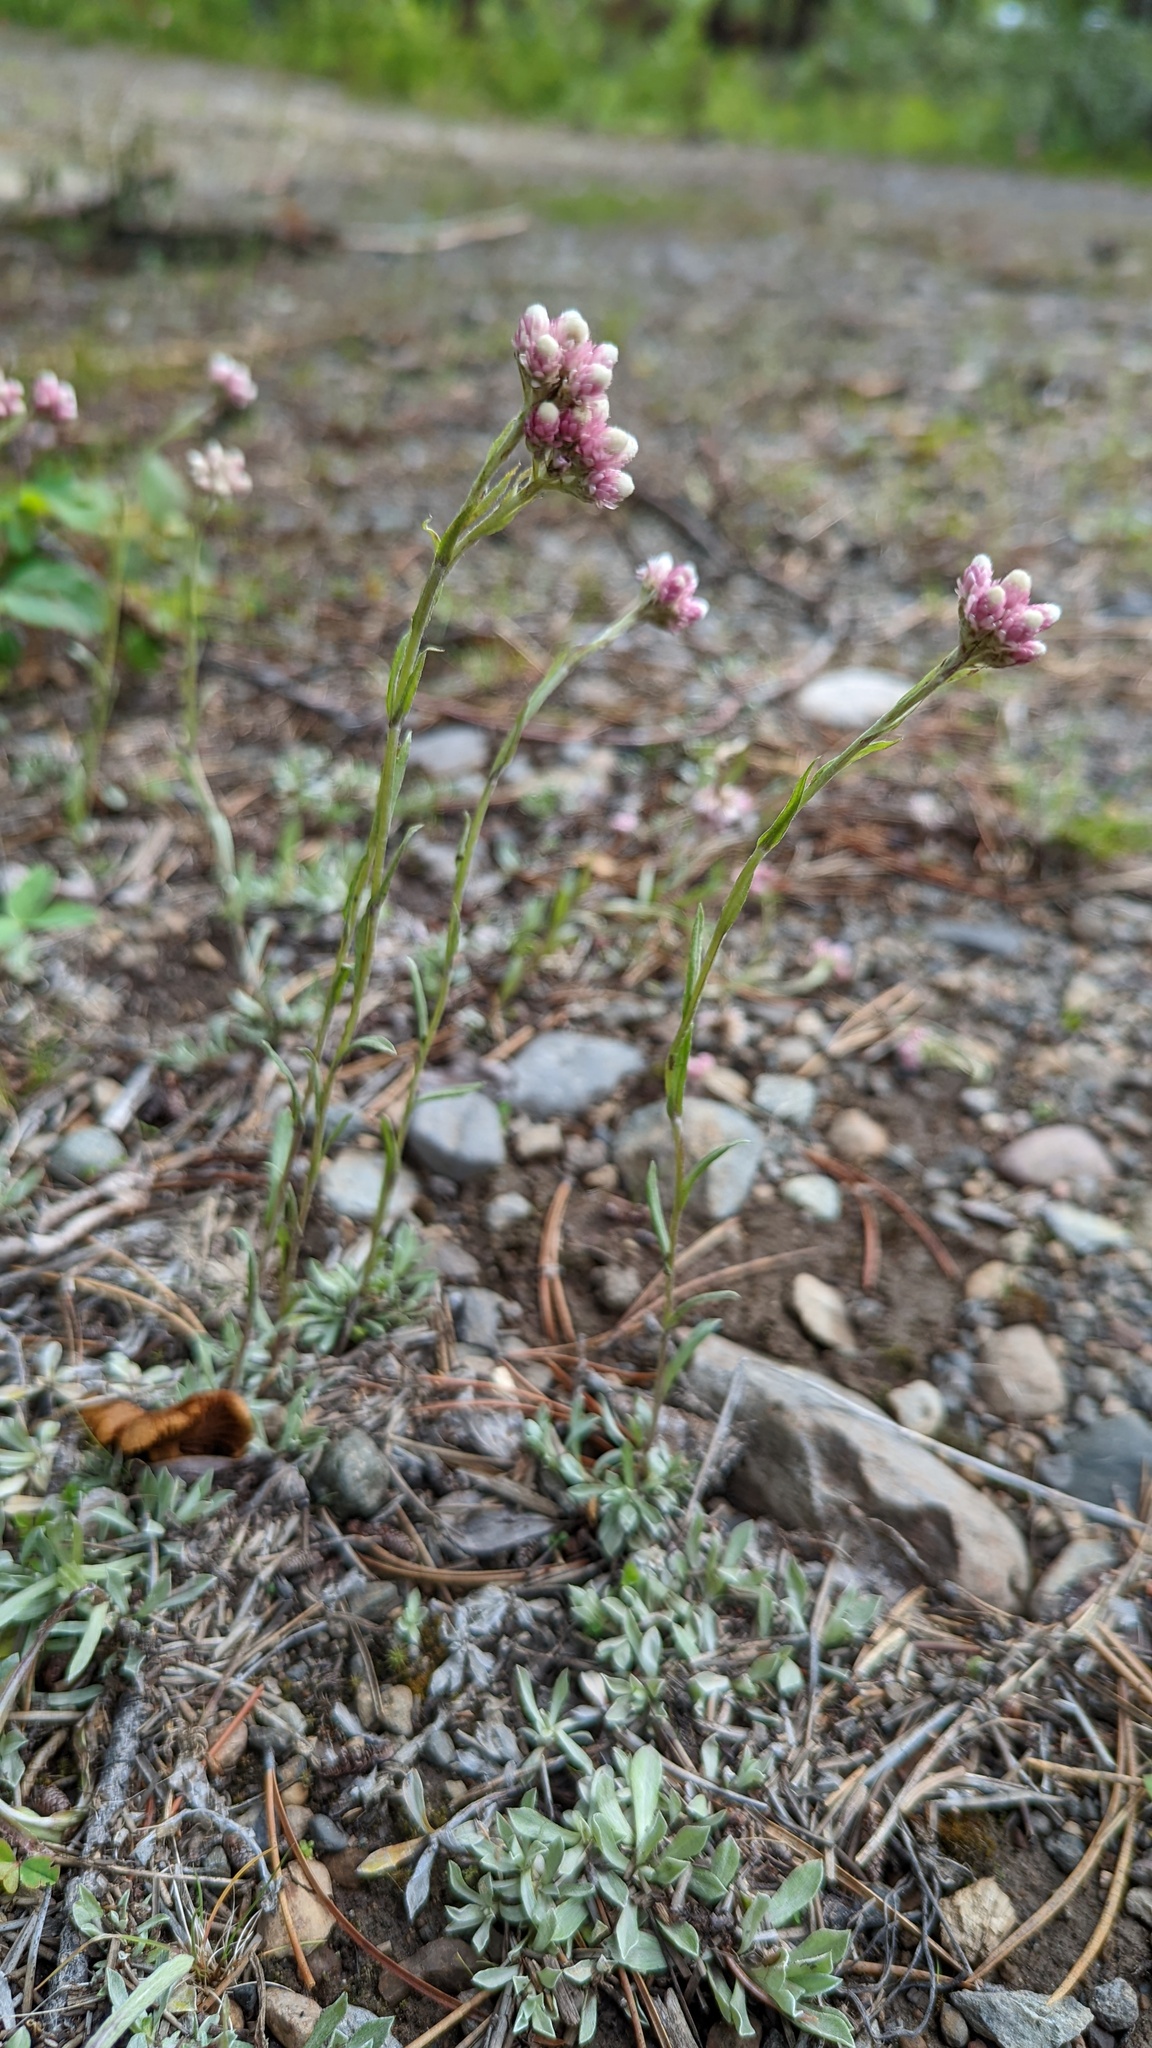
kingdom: Plantae
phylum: Tracheophyta
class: Magnoliopsida
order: Asterales
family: Asteraceae
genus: Antennaria
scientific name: Antennaria rosea
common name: Rosy pussytoes
